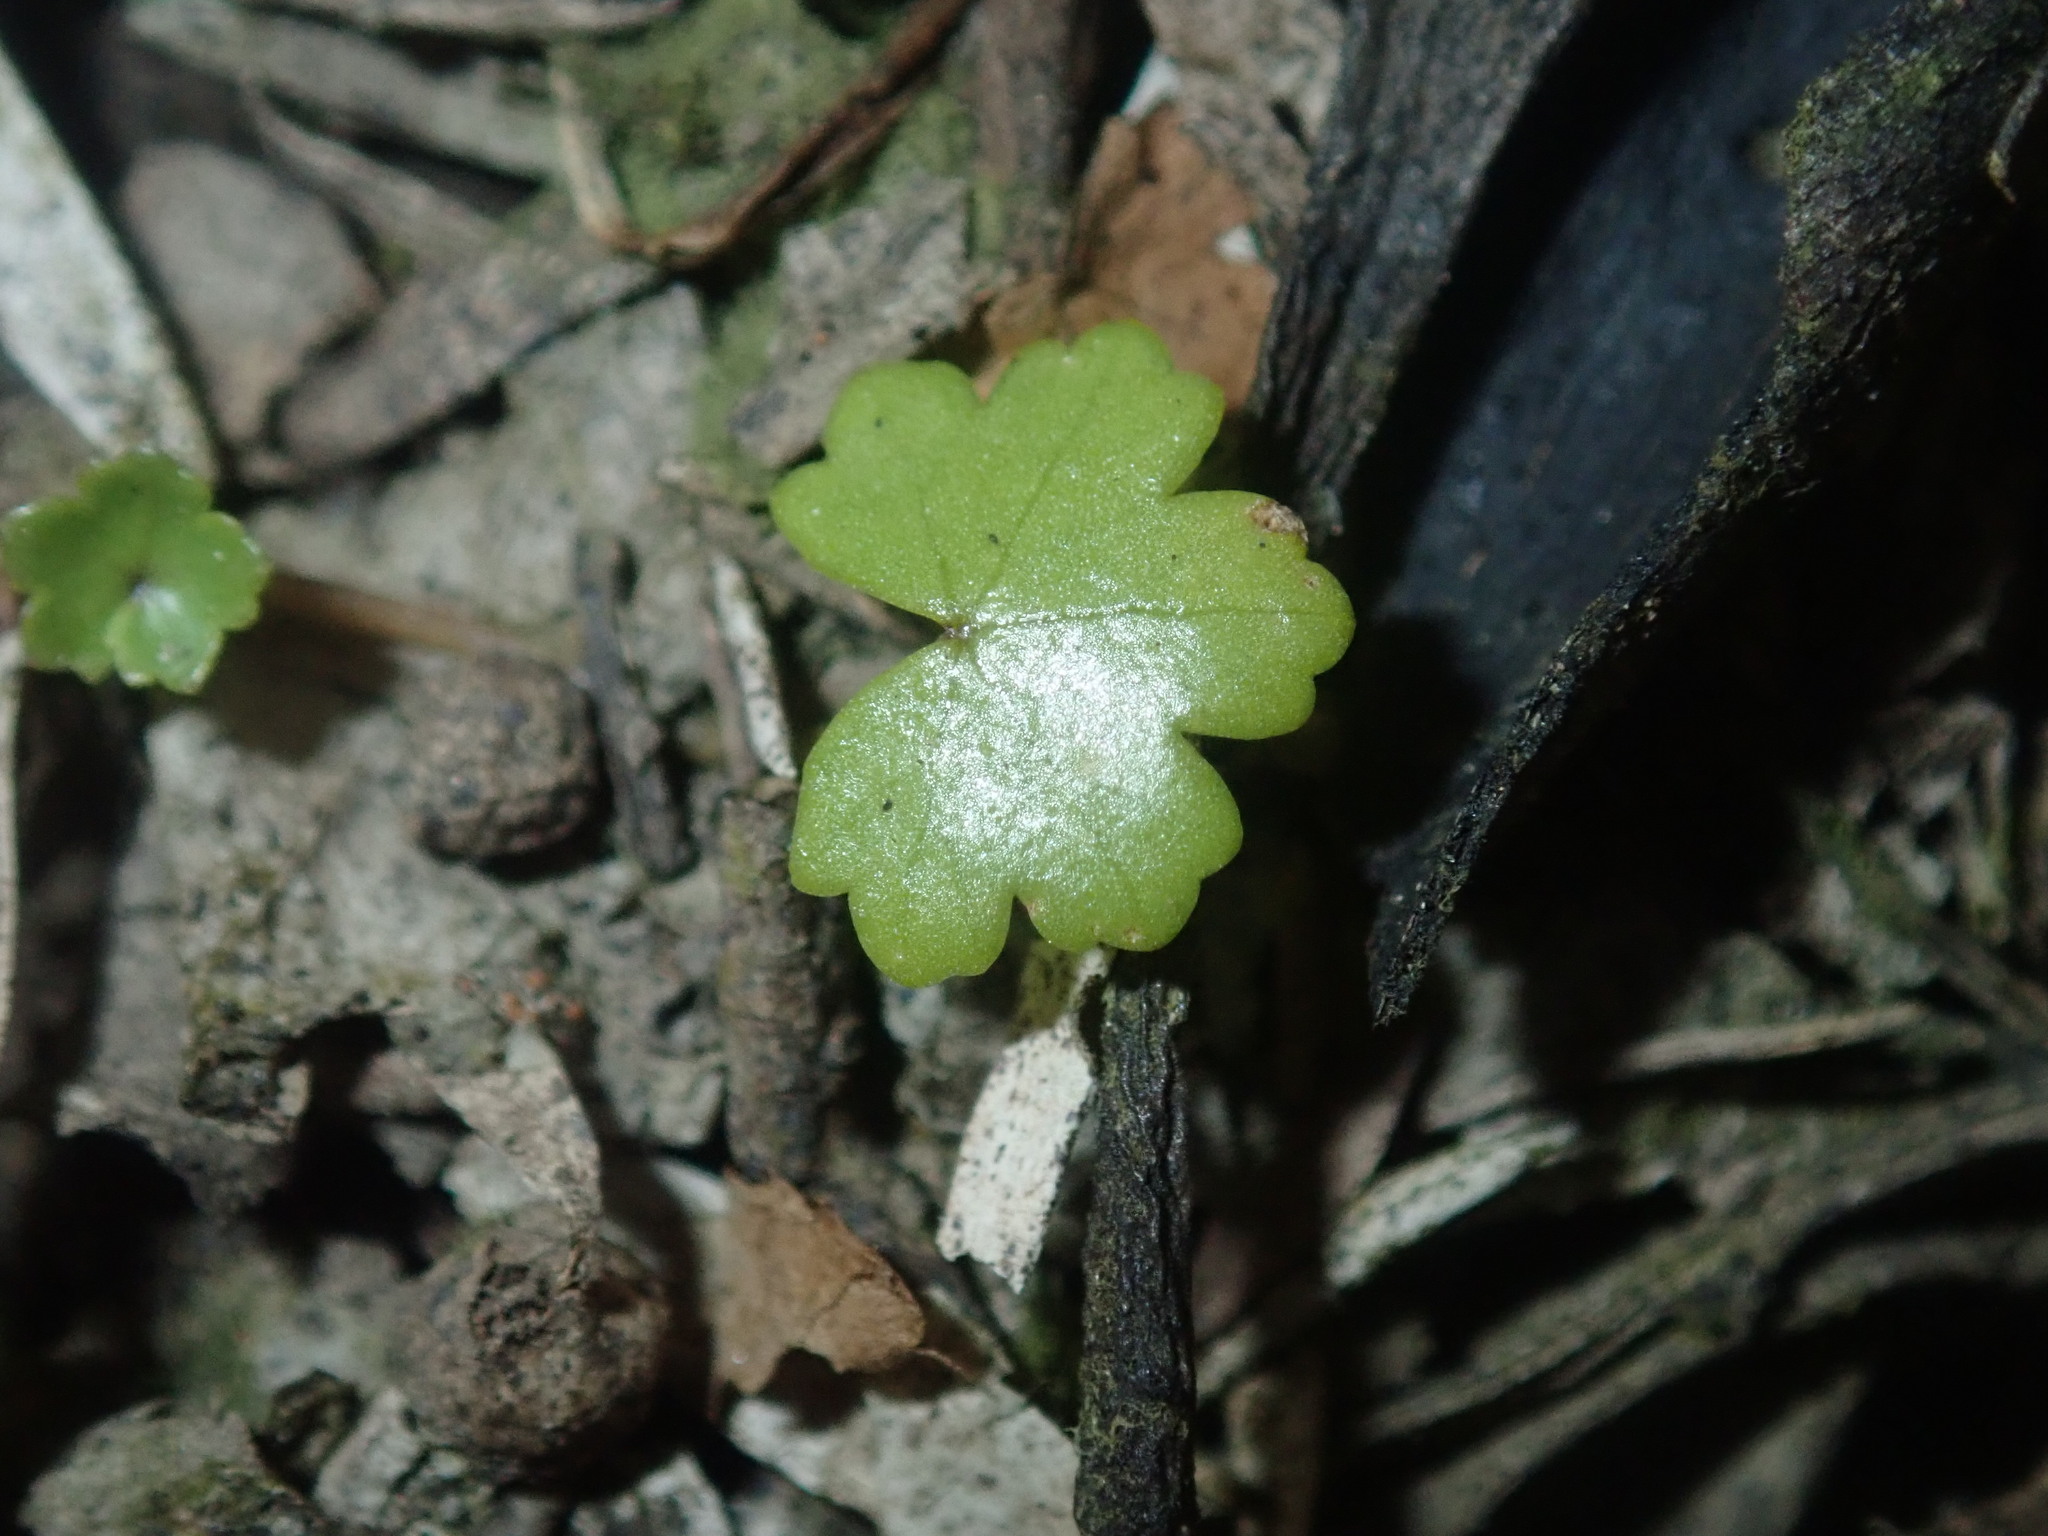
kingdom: Plantae
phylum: Tracheophyta
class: Magnoliopsida
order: Apiales
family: Araliaceae
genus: Hydrocotyle
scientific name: Hydrocotyle sibthorpioides
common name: Lawn marshpennywort
